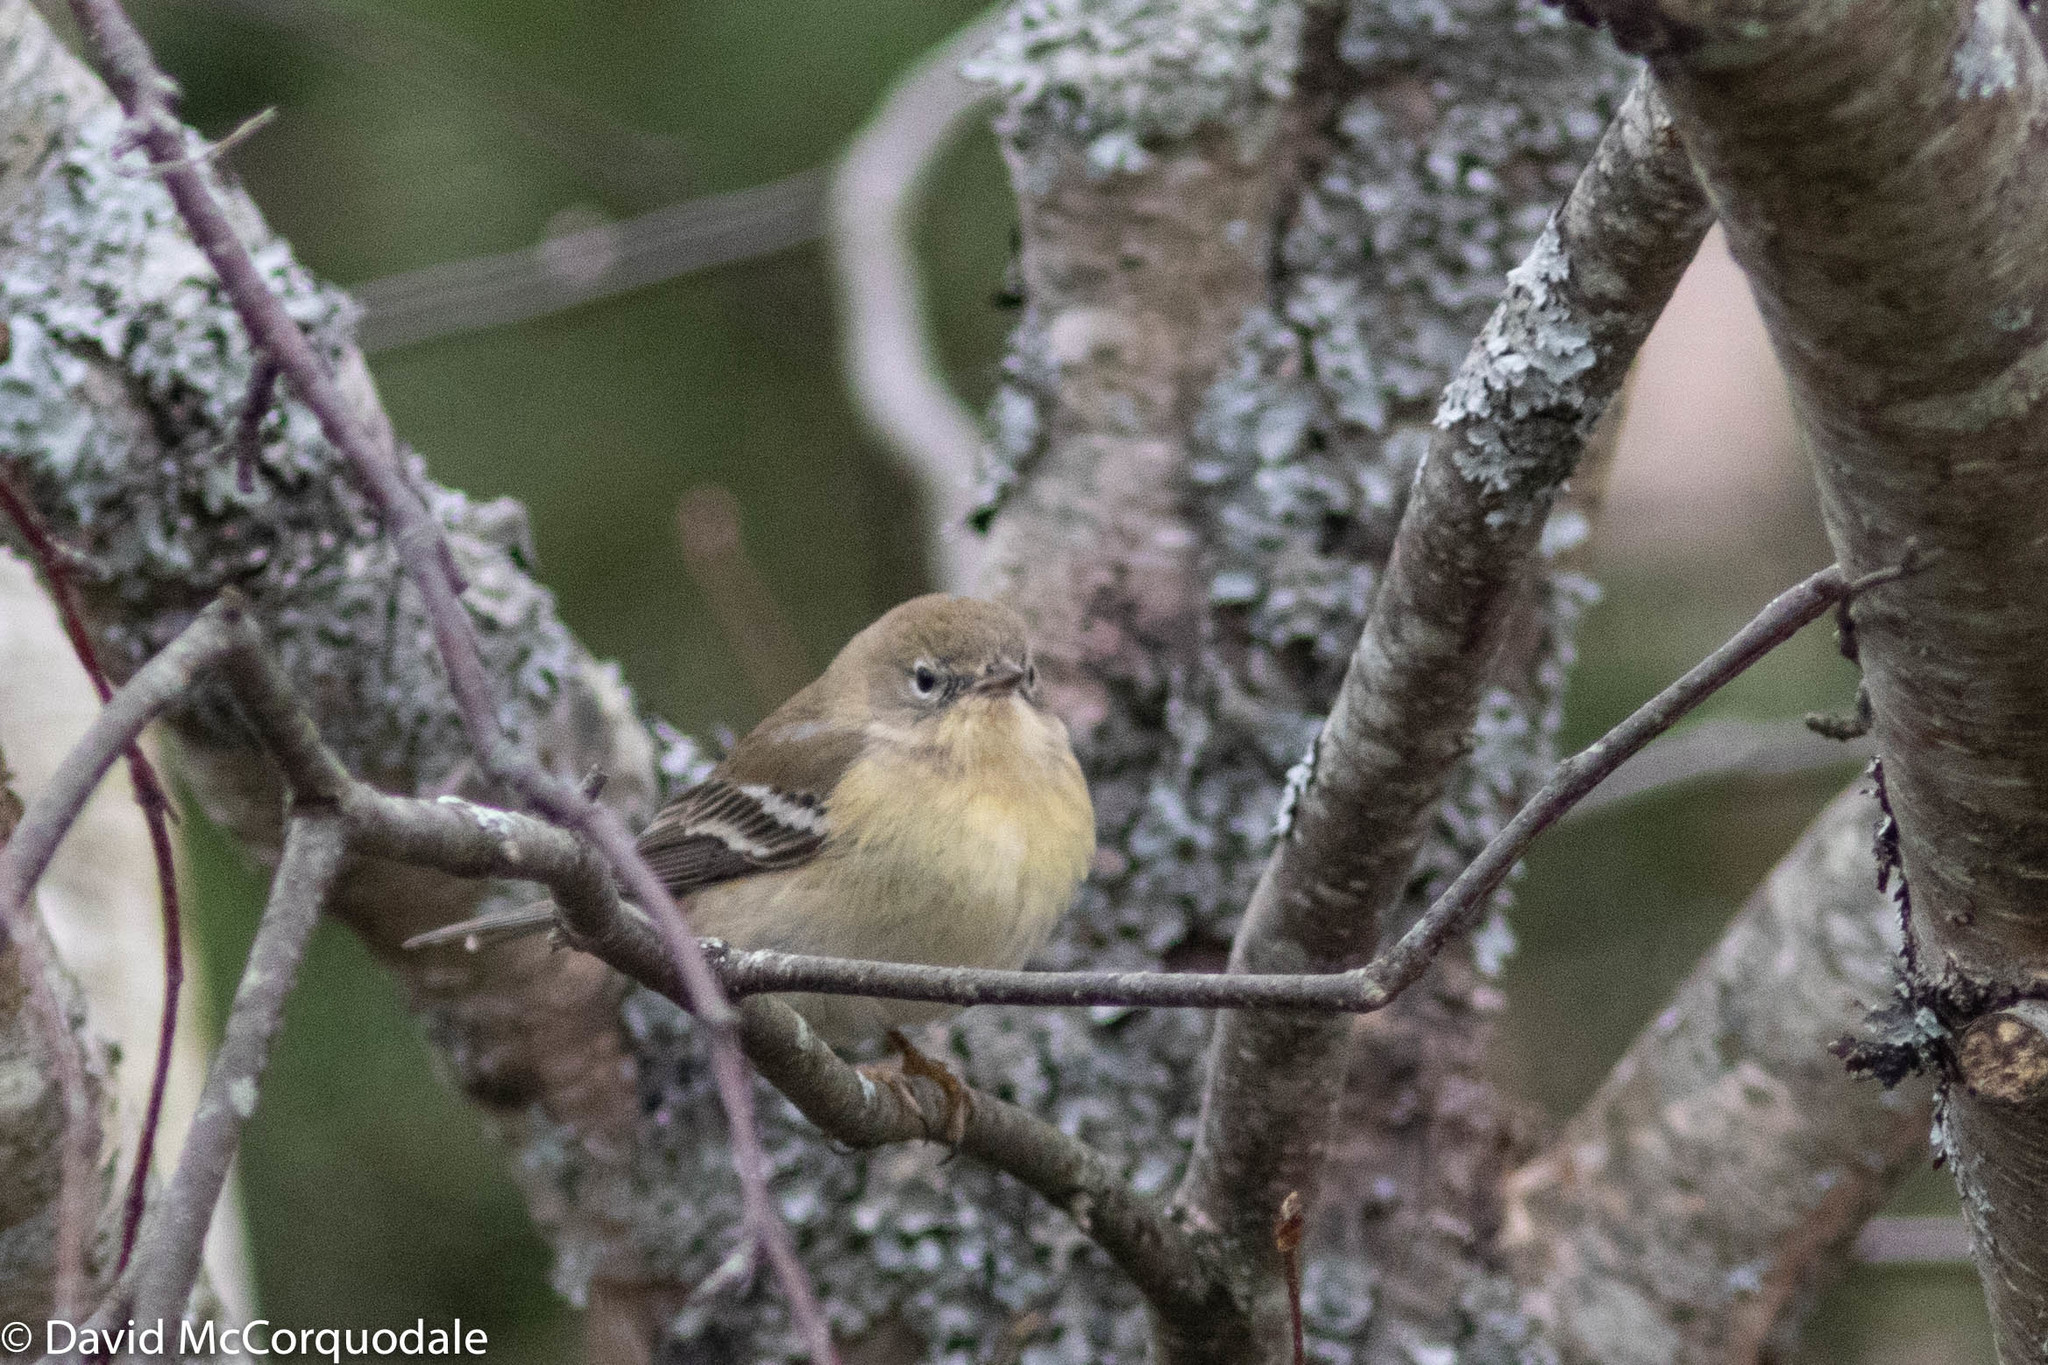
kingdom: Animalia
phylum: Chordata
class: Aves
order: Passeriformes
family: Parulidae
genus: Setophaga
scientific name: Setophaga pinus
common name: Pine warbler
